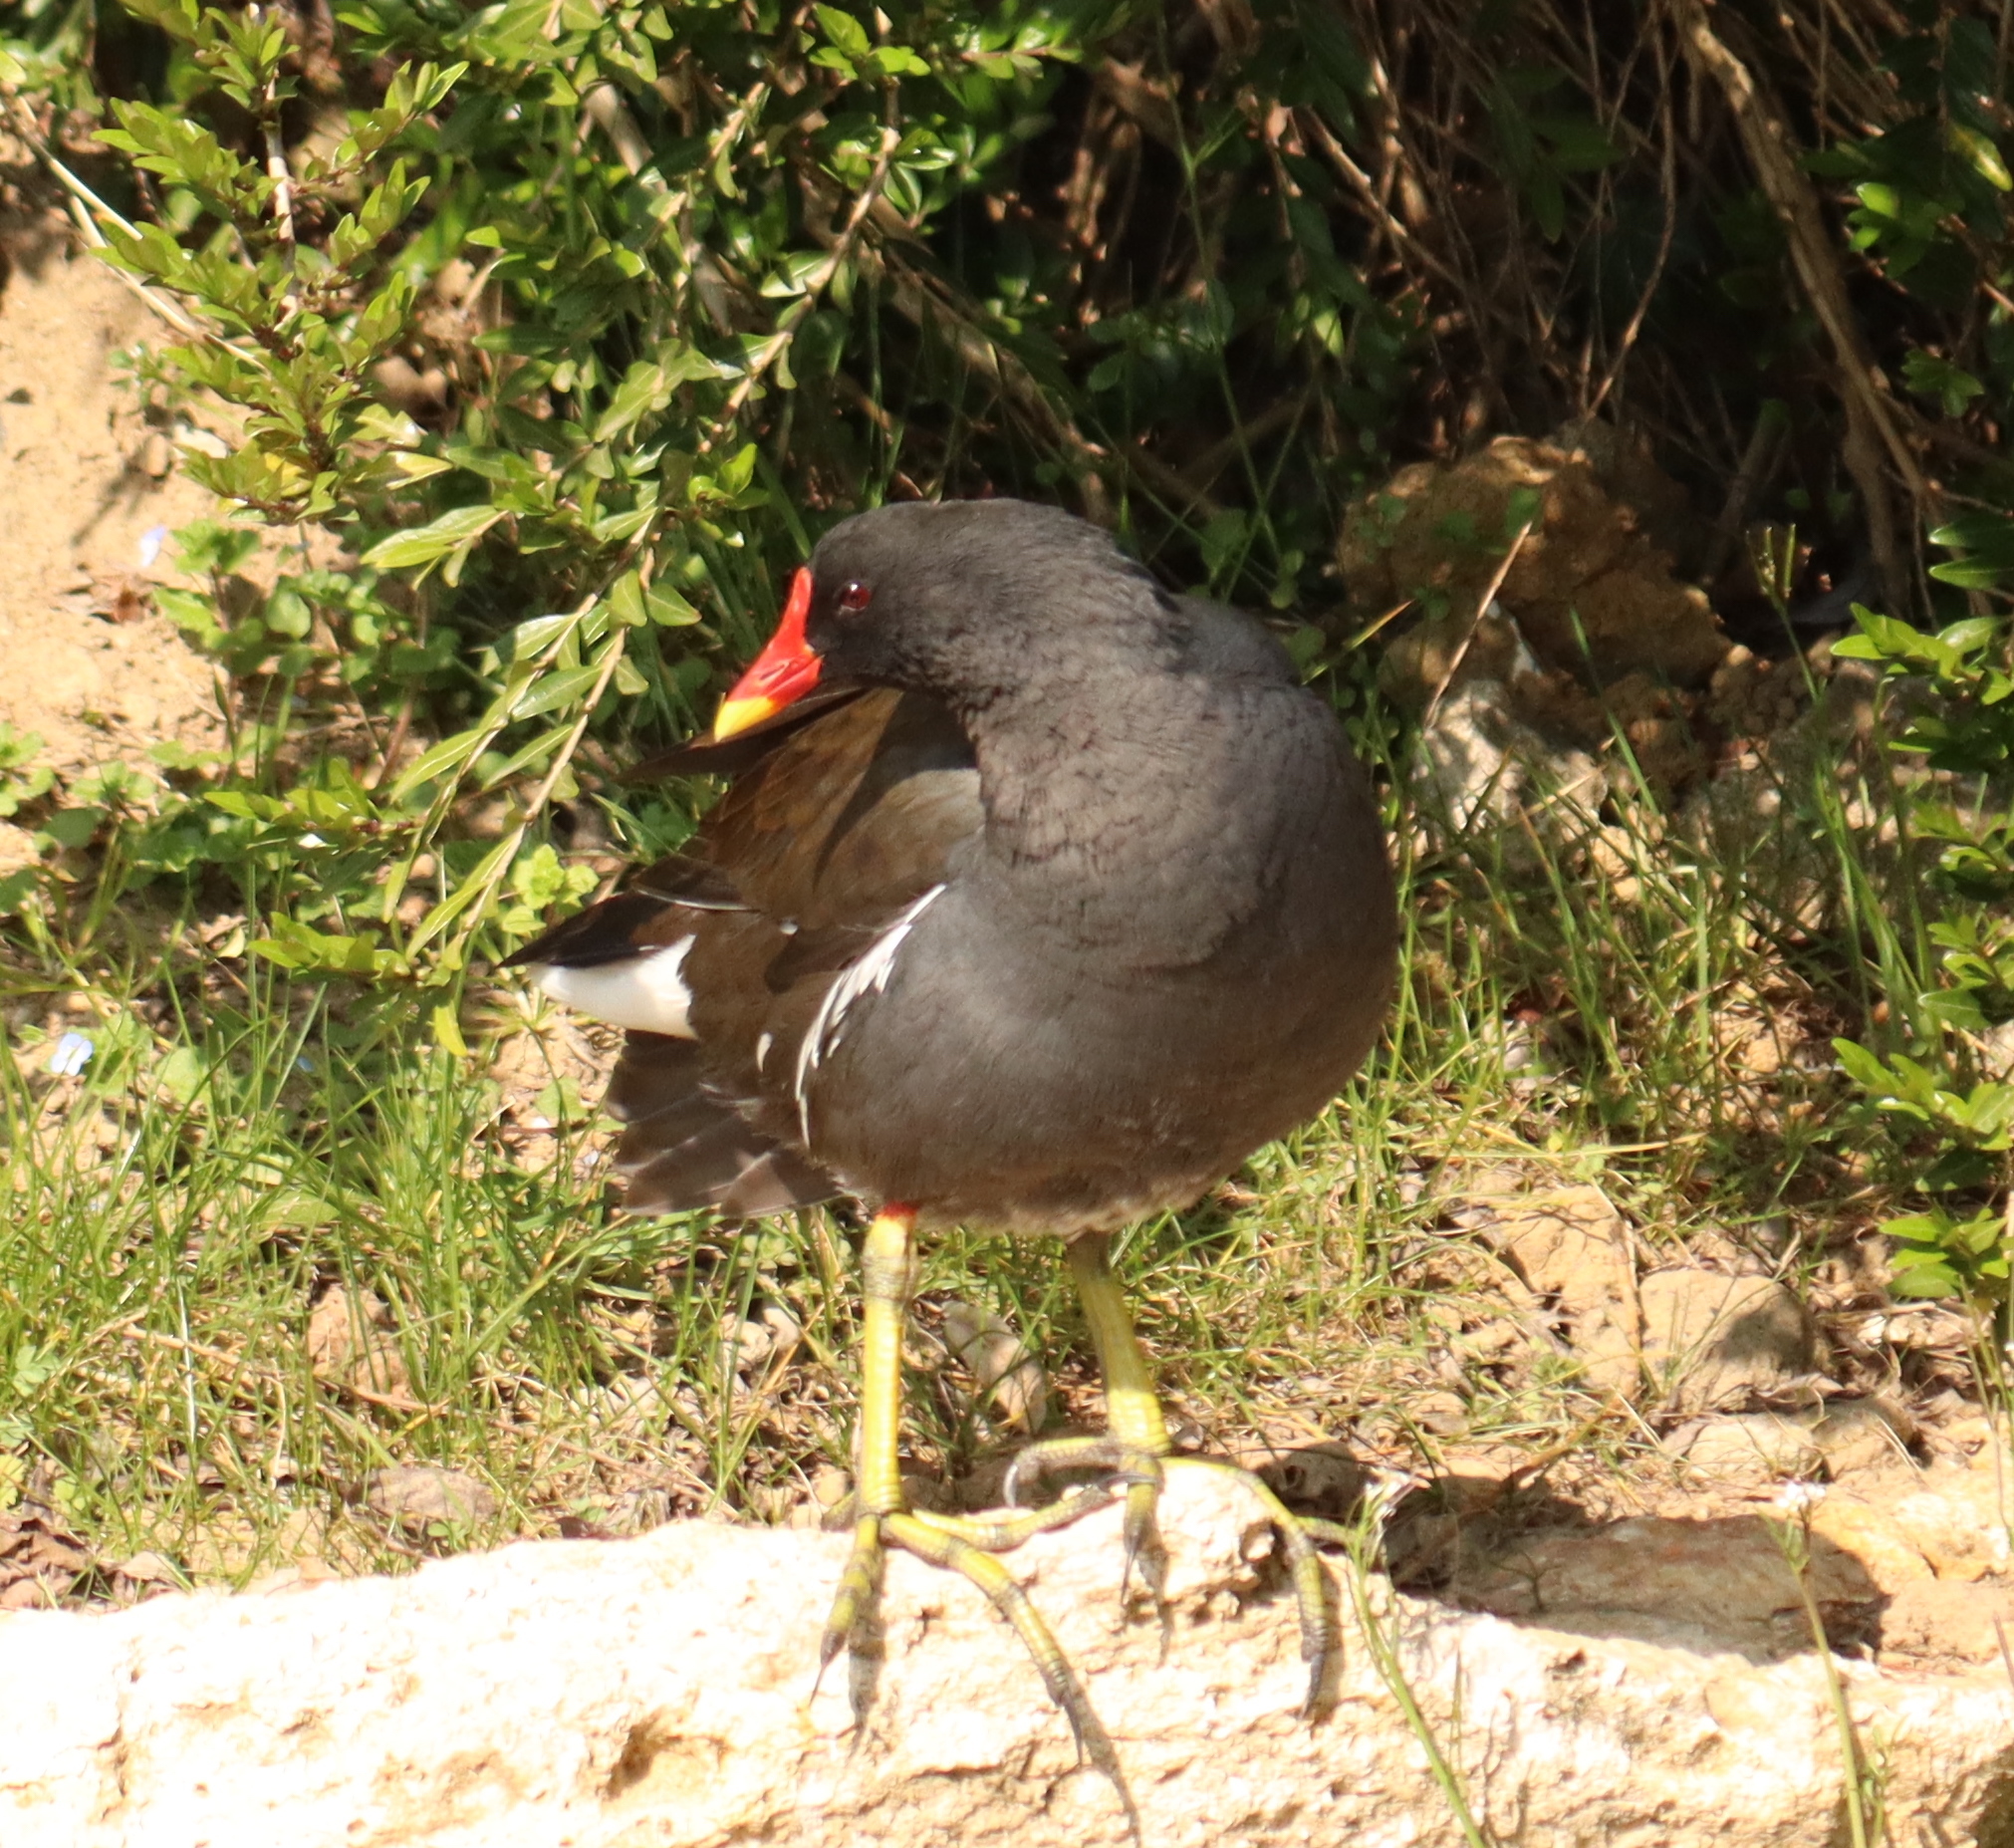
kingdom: Animalia
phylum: Chordata
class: Aves
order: Gruiformes
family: Rallidae
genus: Gallinula
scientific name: Gallinula chloropus
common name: Common moorhen
